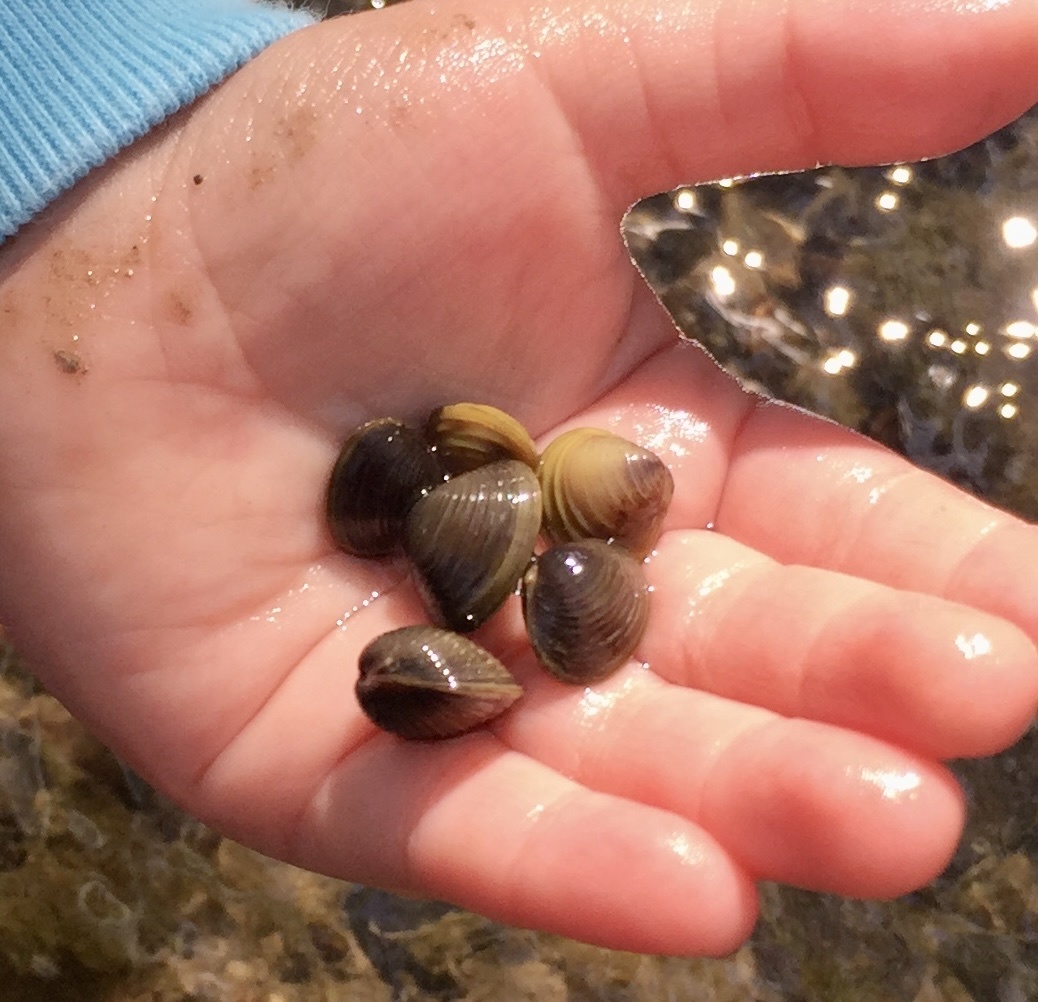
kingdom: Animalia
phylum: Mollusca
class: Bivalvia
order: Venerida
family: Cyrenidae
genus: Corbicula
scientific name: Corbicula fluminea
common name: Asian clam
